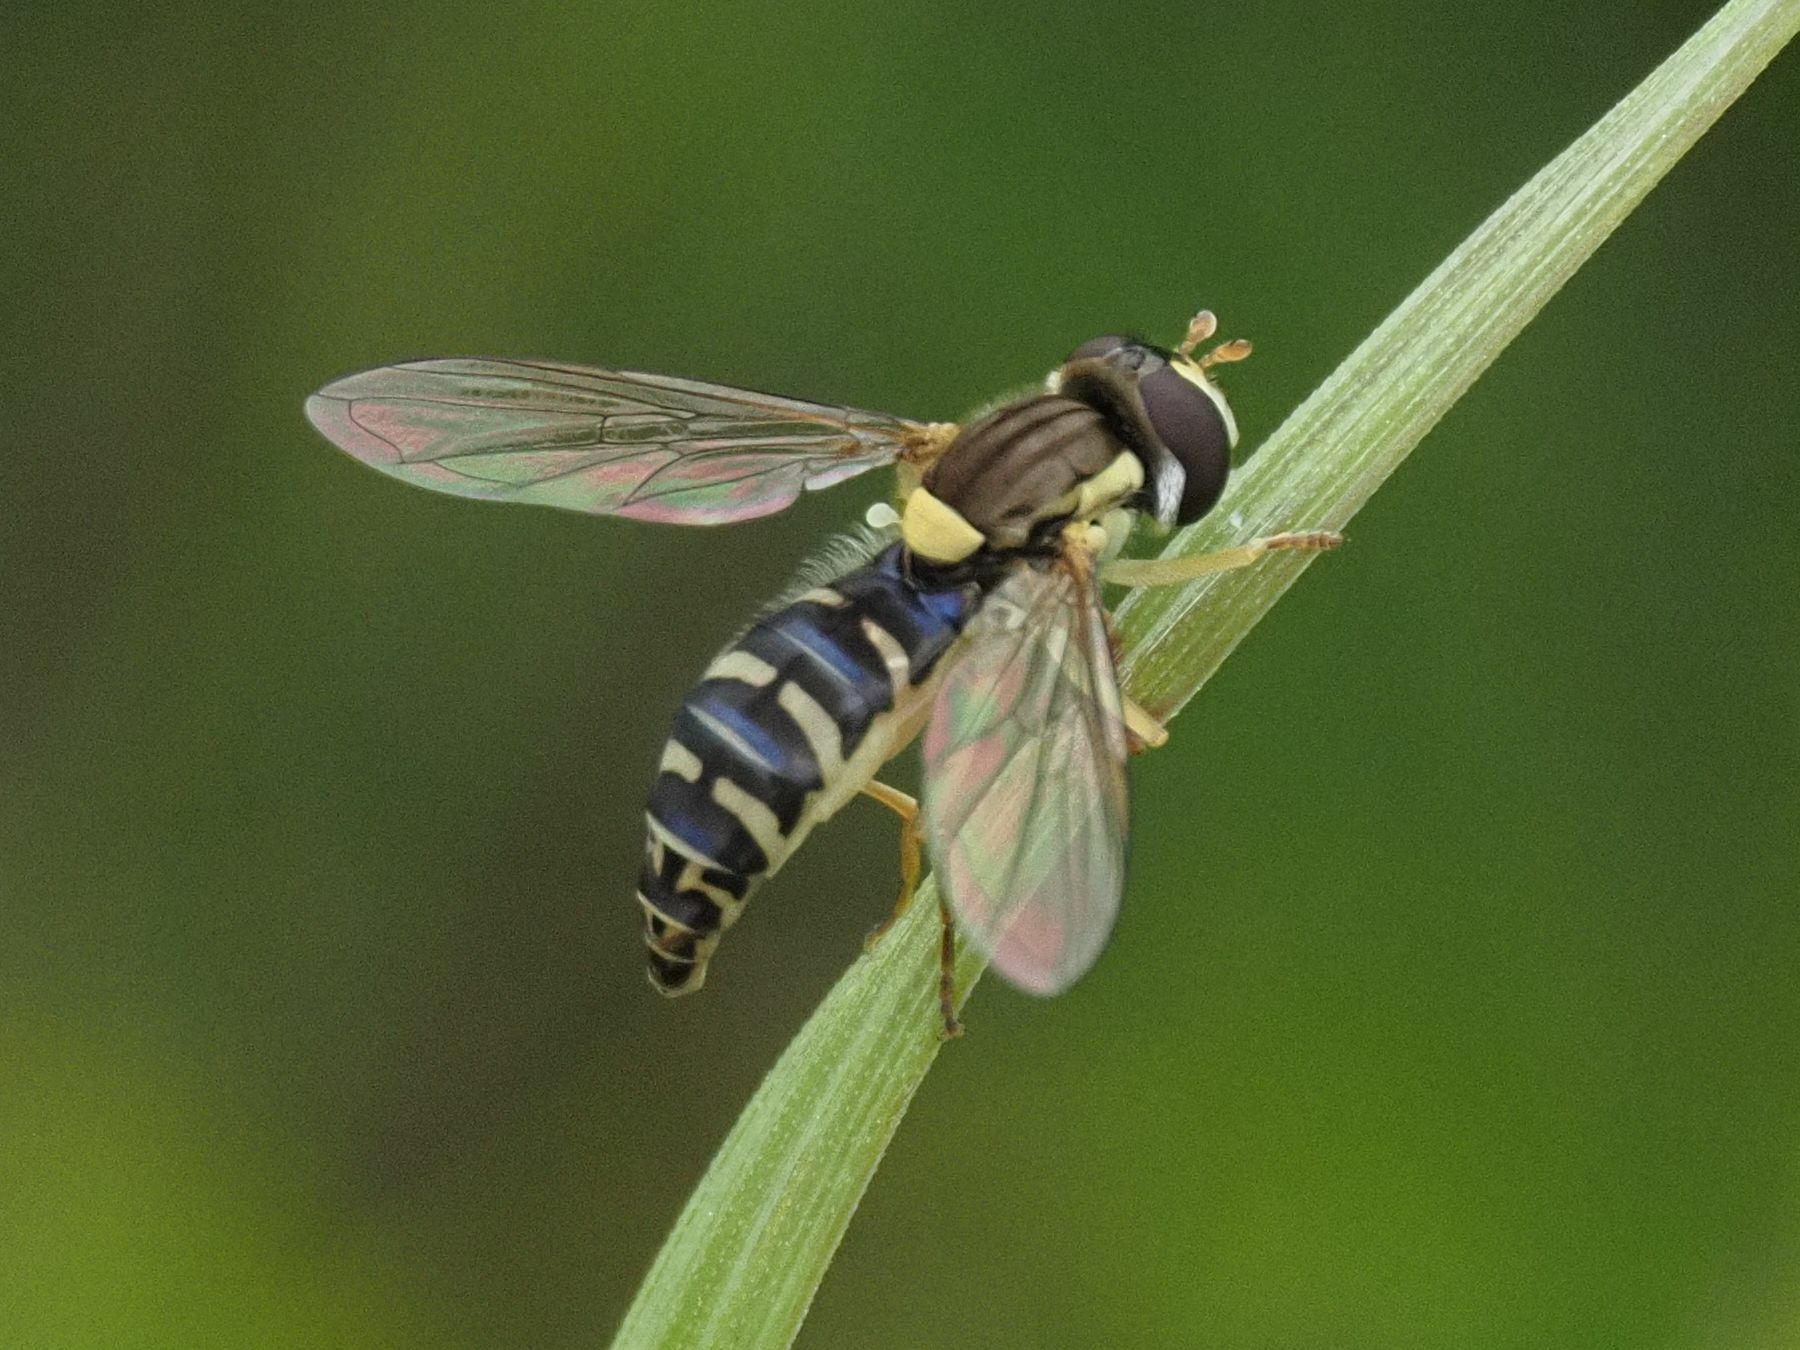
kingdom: Animalia
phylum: Arthropoda
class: Insecta
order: Diptera
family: Syrphidae
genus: Sphaerophoria
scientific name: Sphaerophoria
